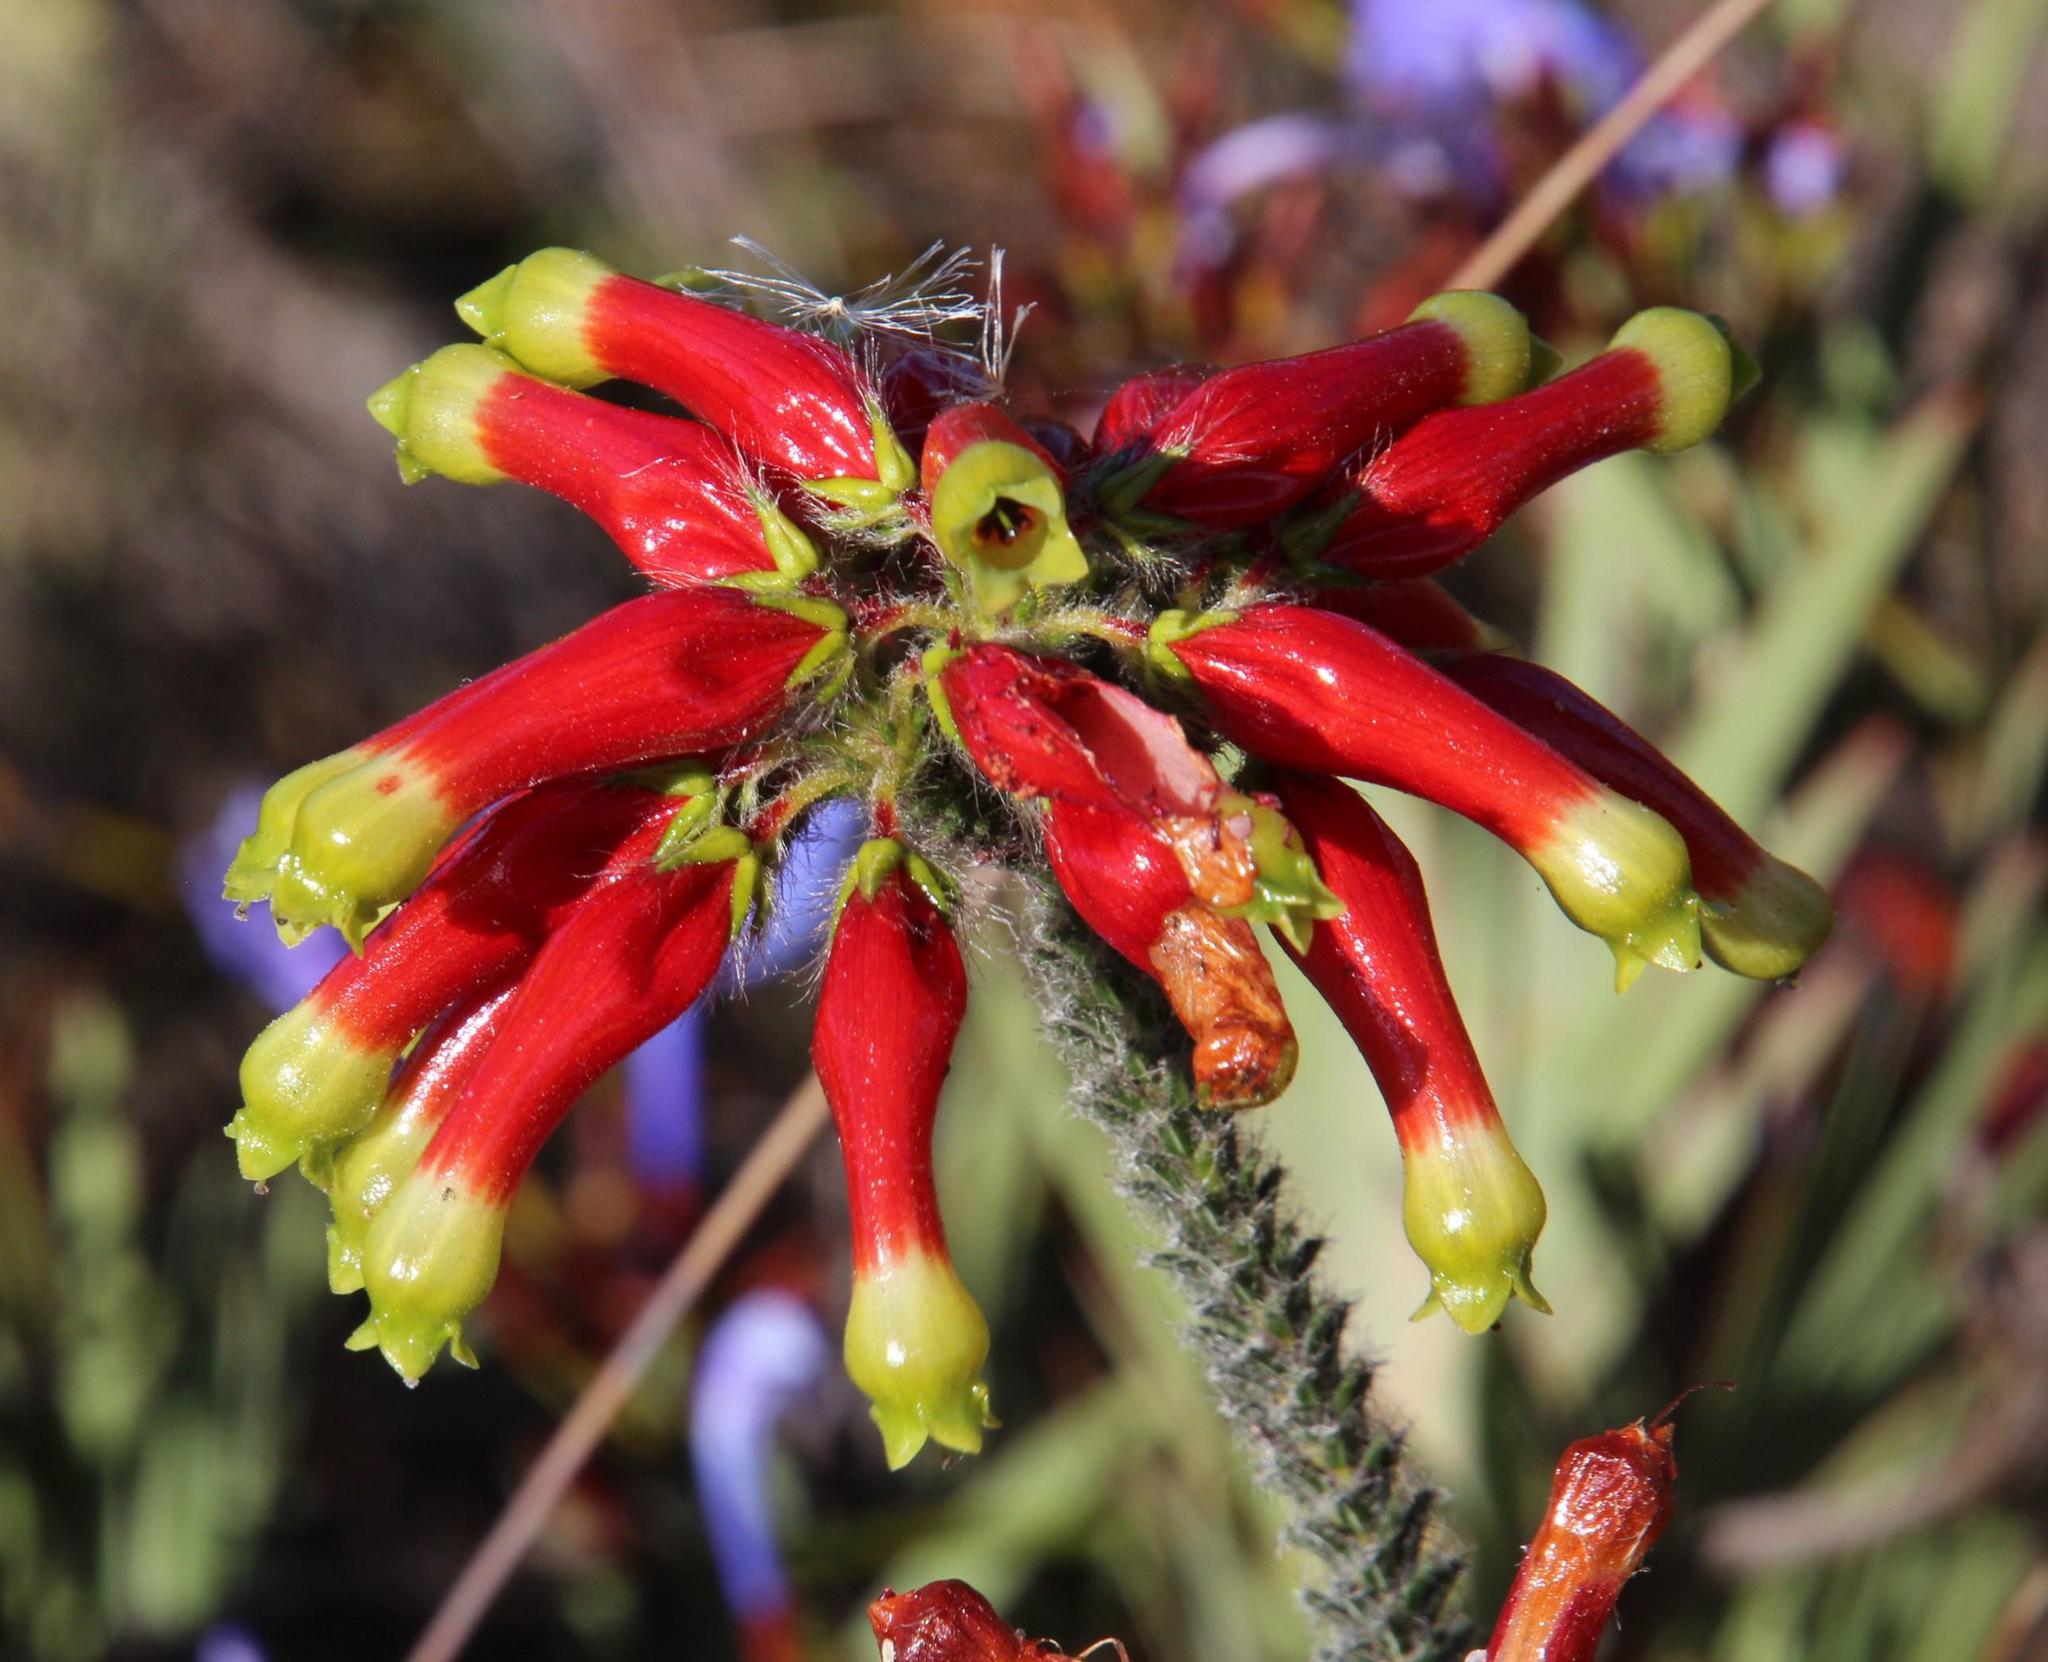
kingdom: Plantae
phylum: Tracheophyta
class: Magnoliopsida
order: Ericales
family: Ericaceae
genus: Erica
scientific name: Erica massonii
